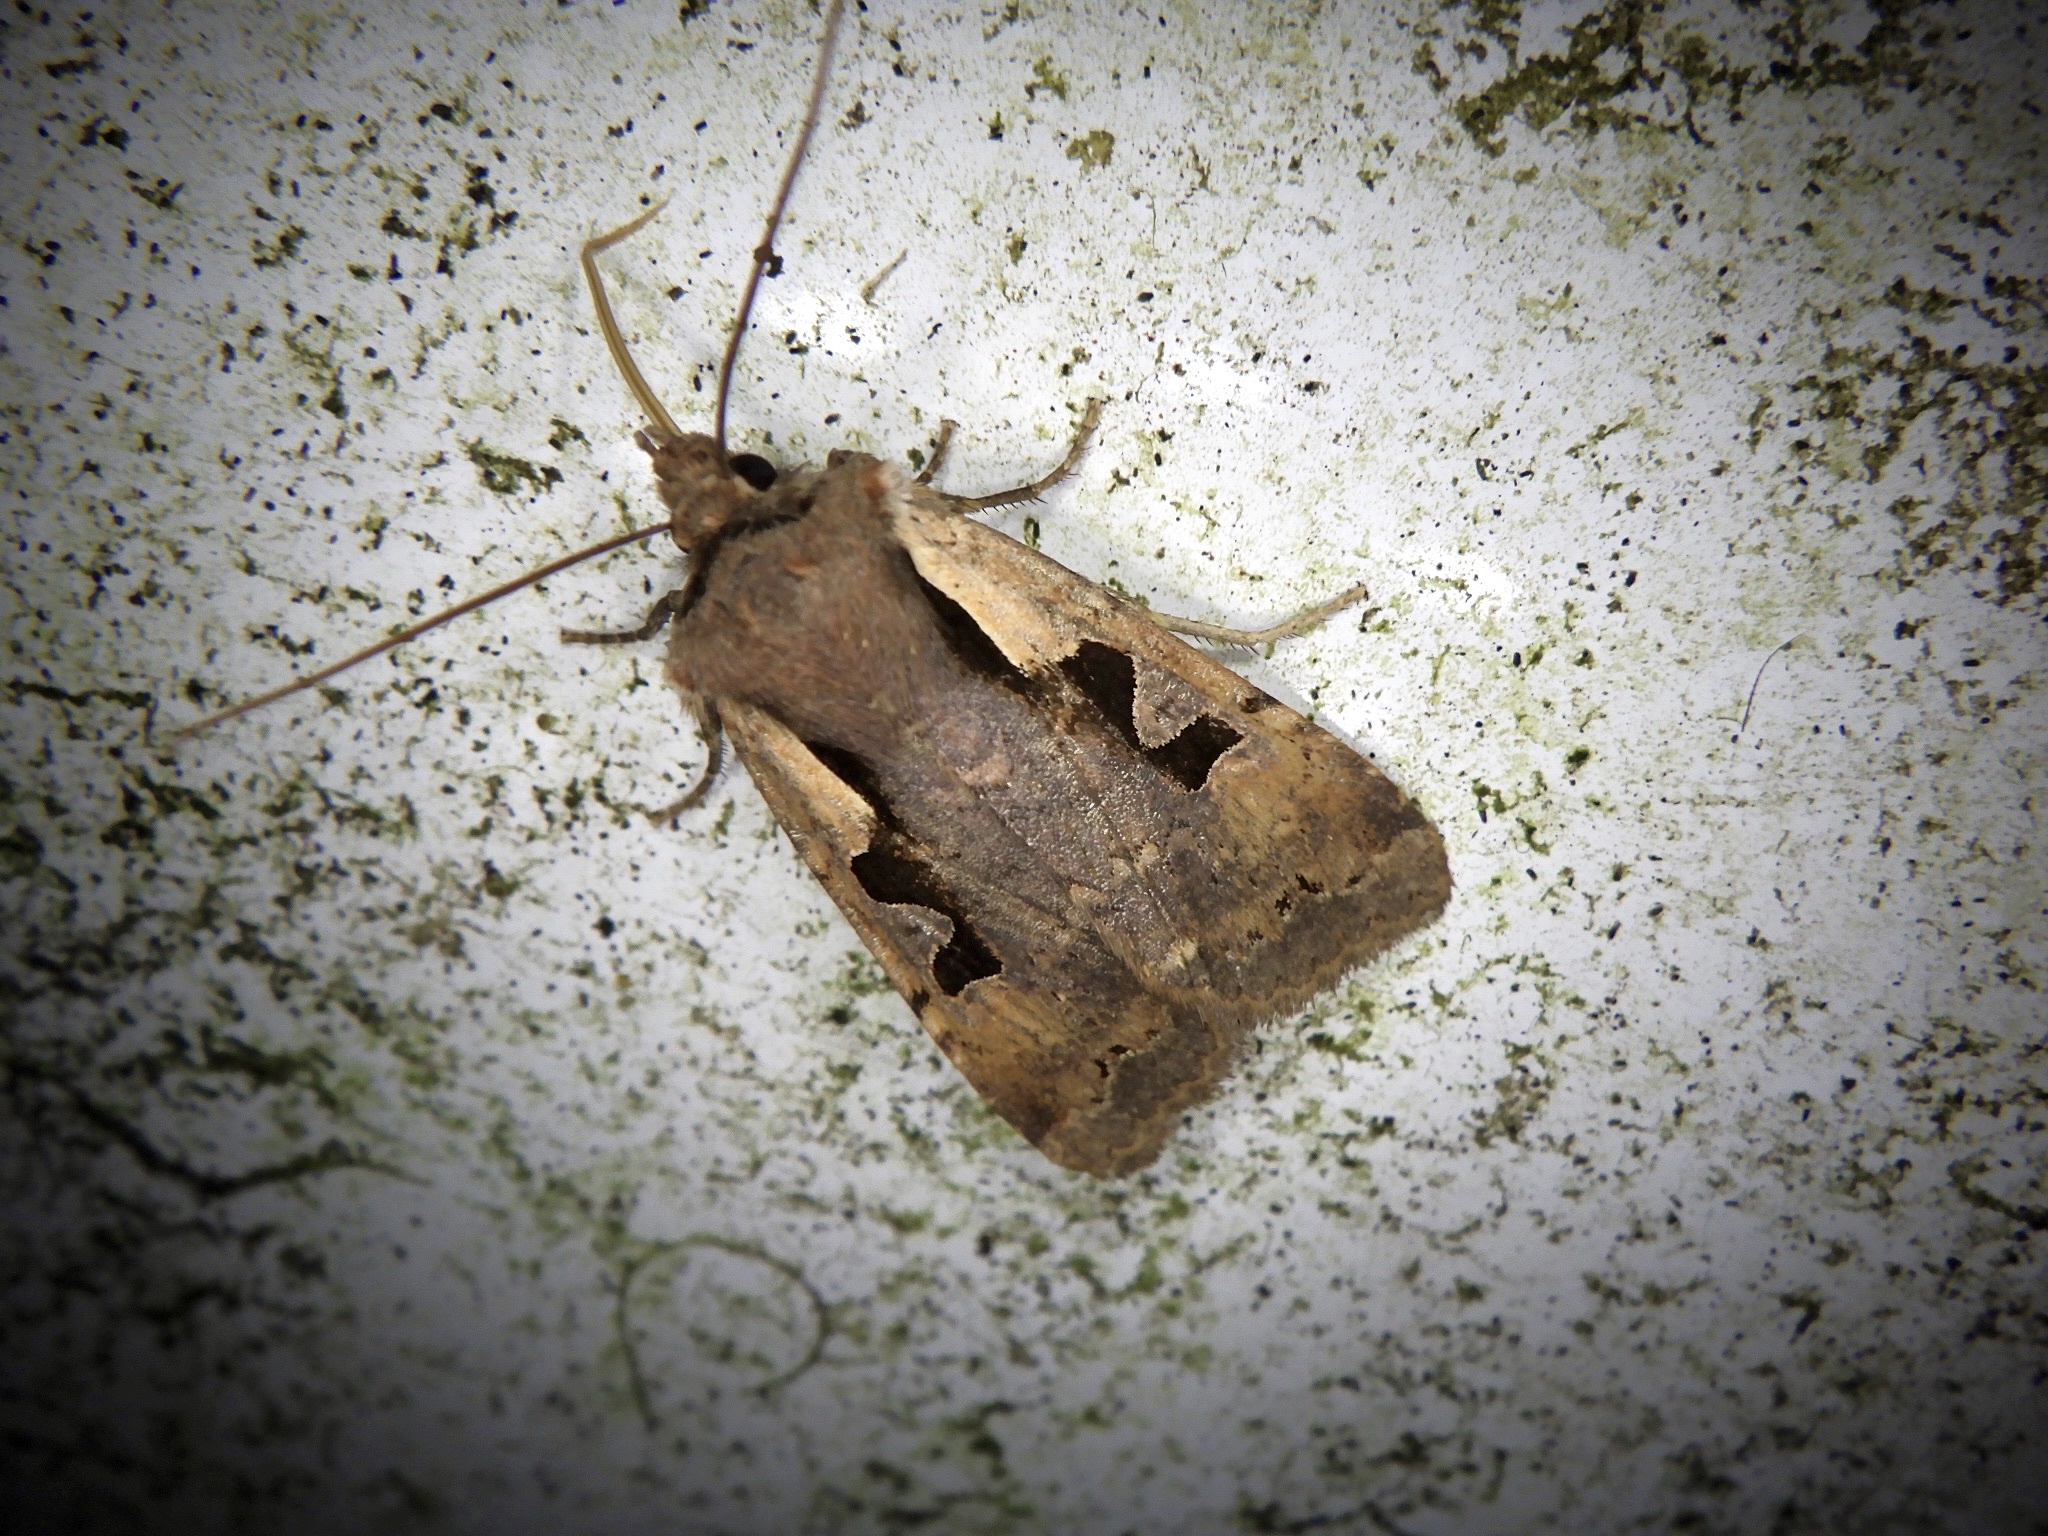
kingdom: Animalia
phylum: Arthropoda
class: Insecta
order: Lepidoptera
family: Noctuidae
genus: Sugitania
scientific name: Sugitania lepida
